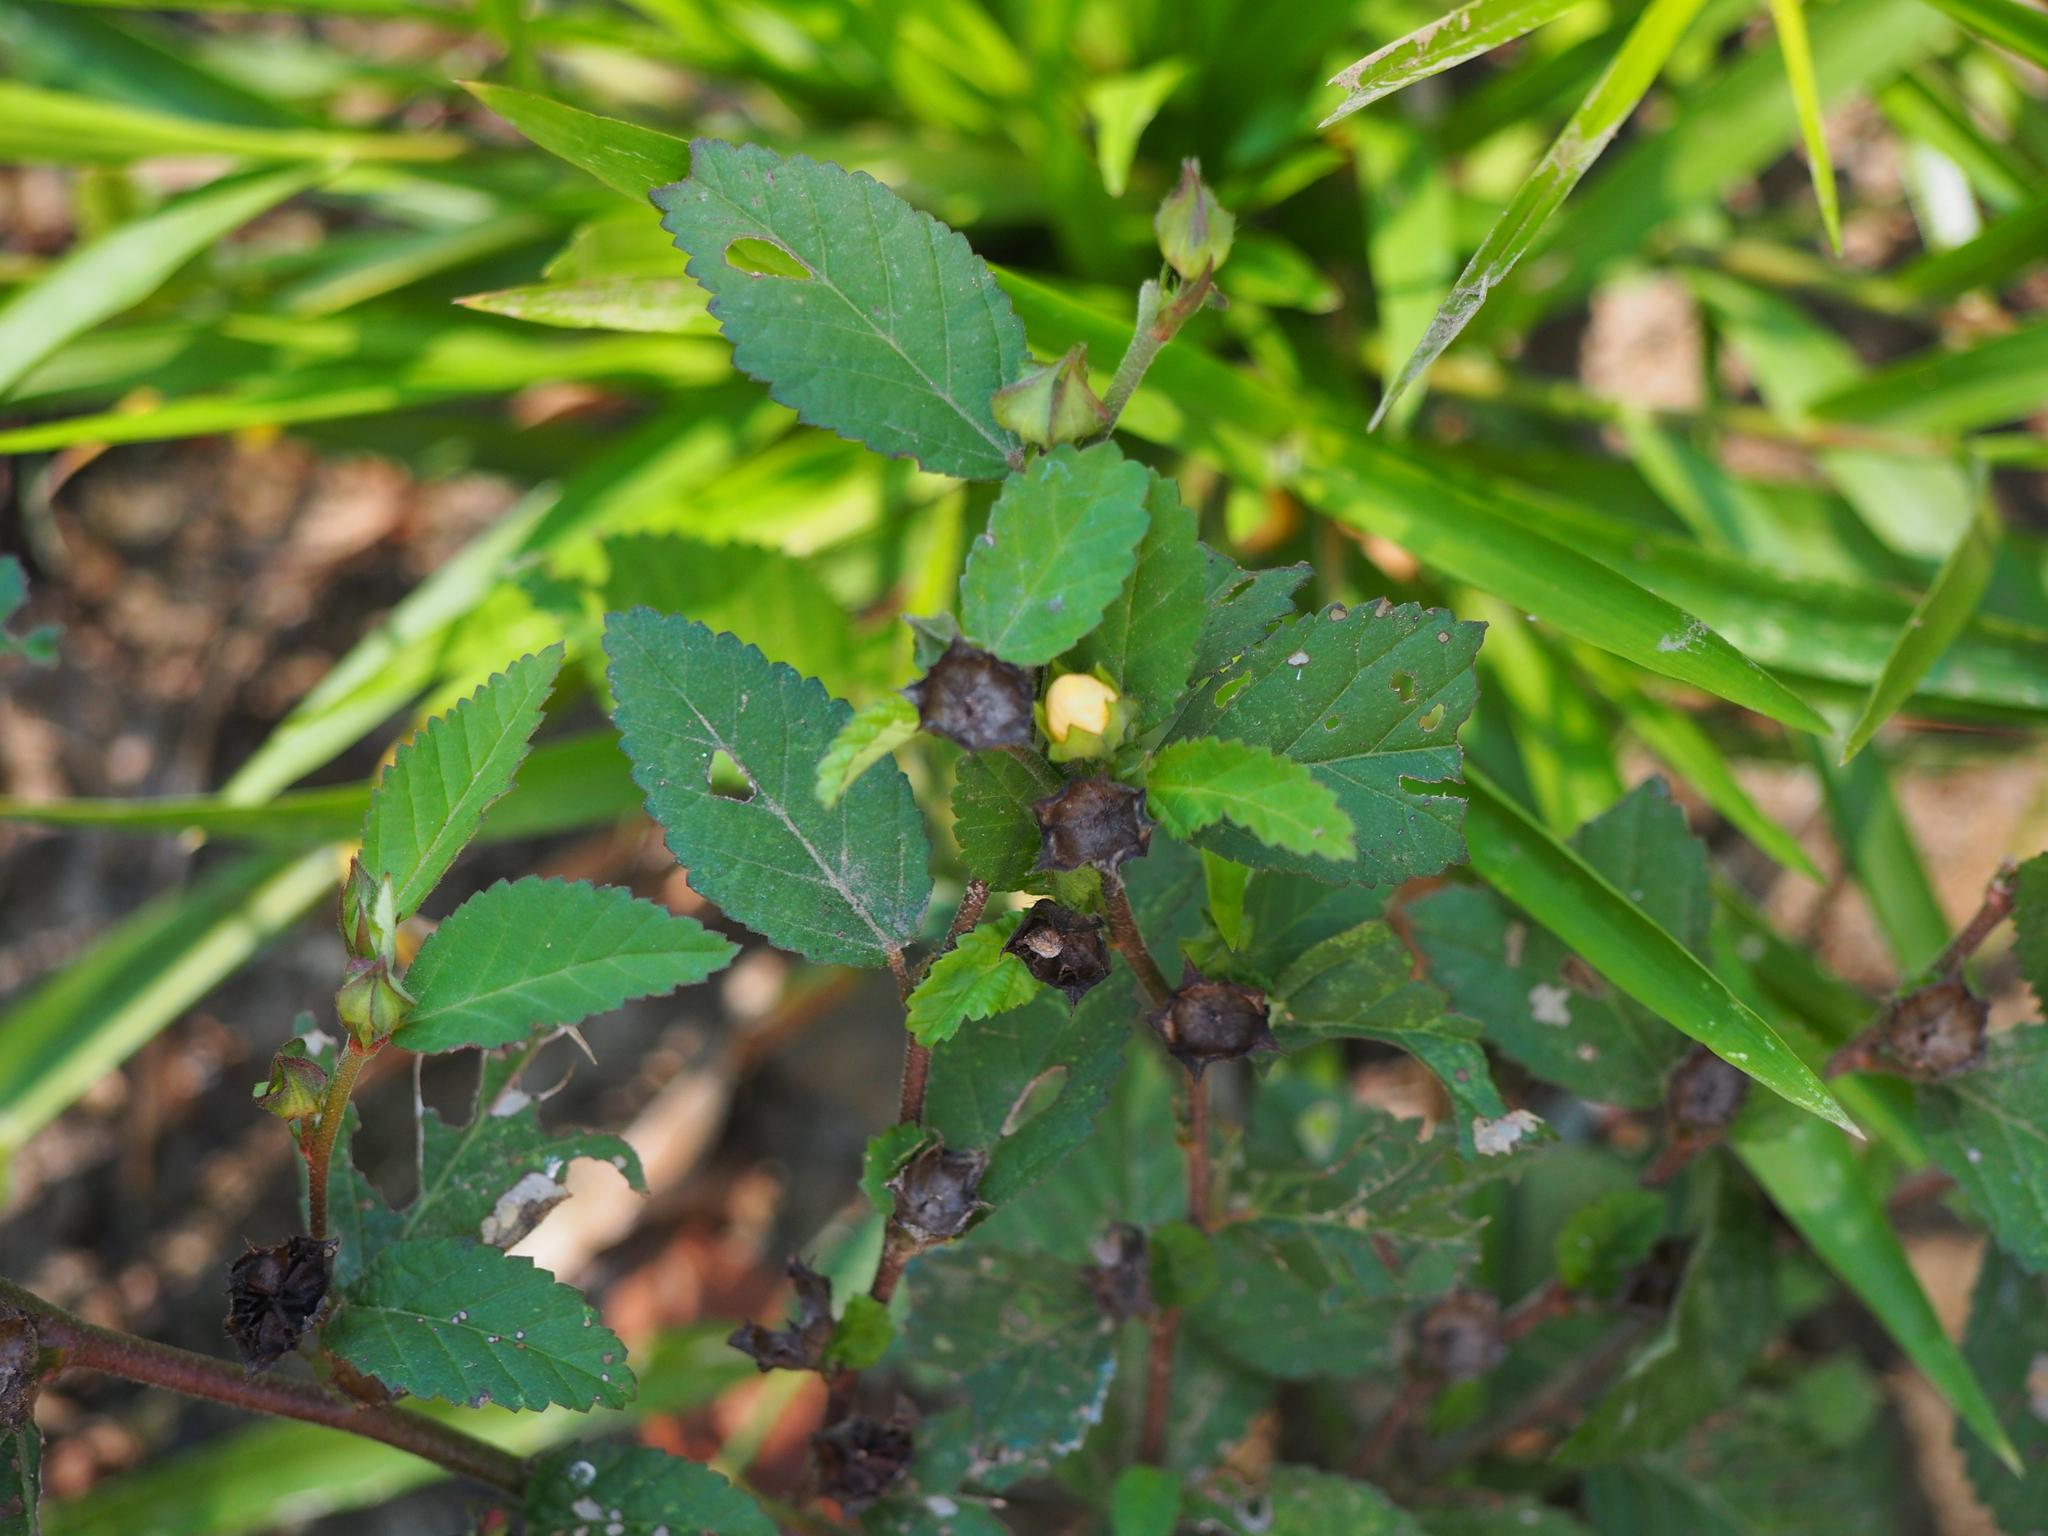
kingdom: Plantae
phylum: Tracheophyta
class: Magnoliopsida
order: Malvales
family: Malvaceae
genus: Sida
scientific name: Sida ulmifolia
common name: Broom weed
